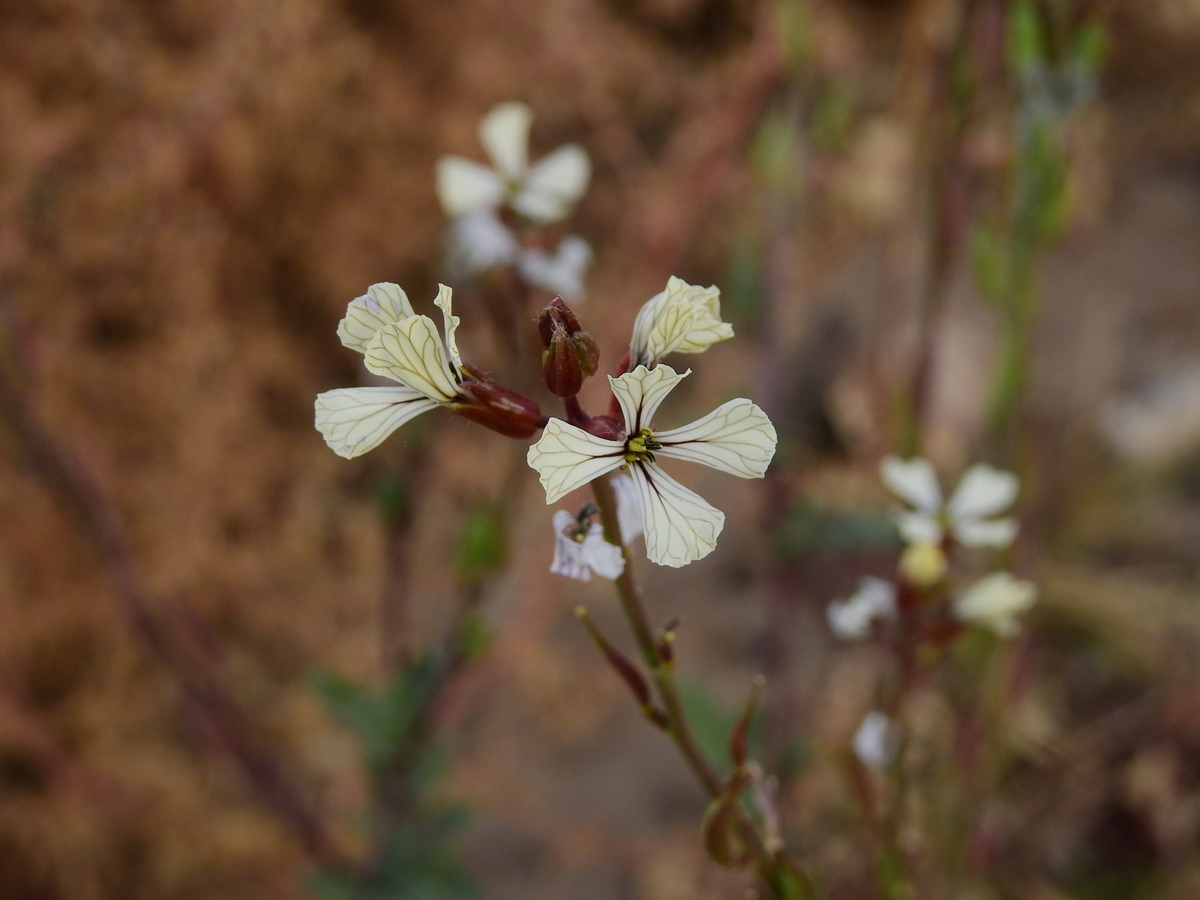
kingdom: Plantae
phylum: Tracheophyta
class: Magnoliopsida
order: Brassicales
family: Brassicaceae
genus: Eruca
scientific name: Eruca vesicaria
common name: Garden rocket
